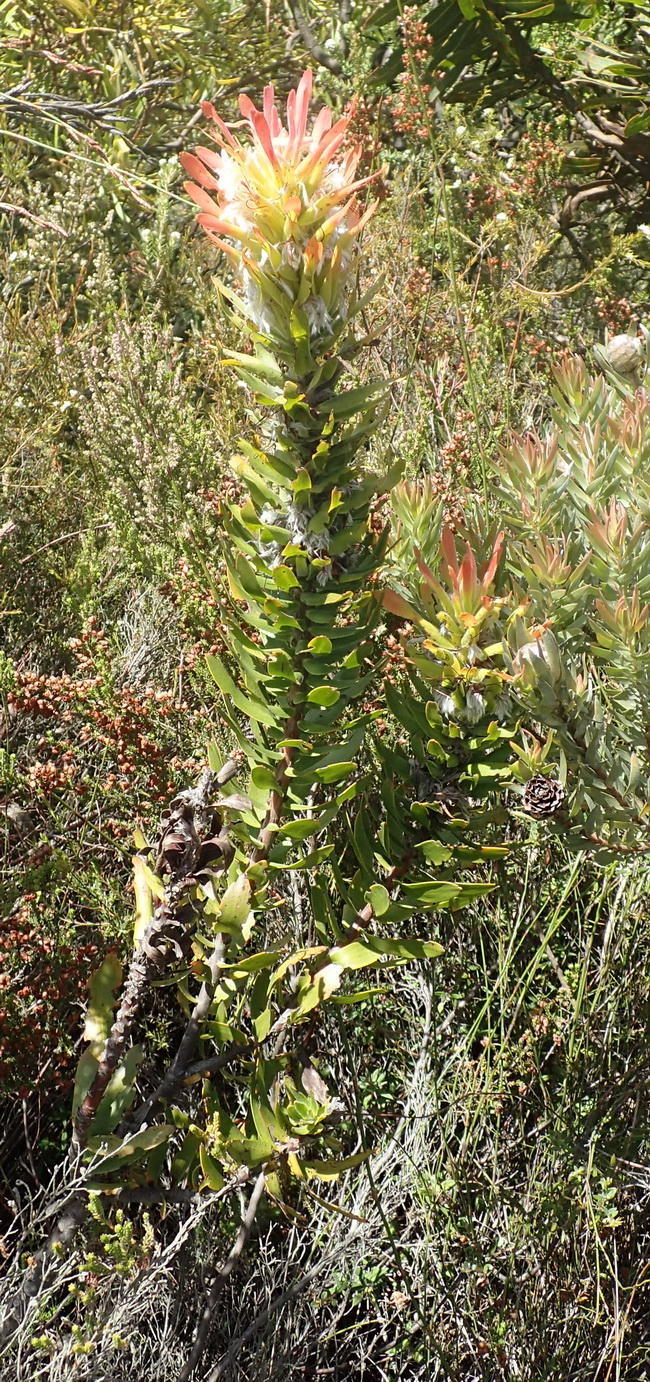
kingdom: Plantae
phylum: Tracheophyta
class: Magnoliopsida
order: Proteales
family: Proteaceae
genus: Mimetes
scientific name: Mimetes cucullatus
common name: Common pagoda
